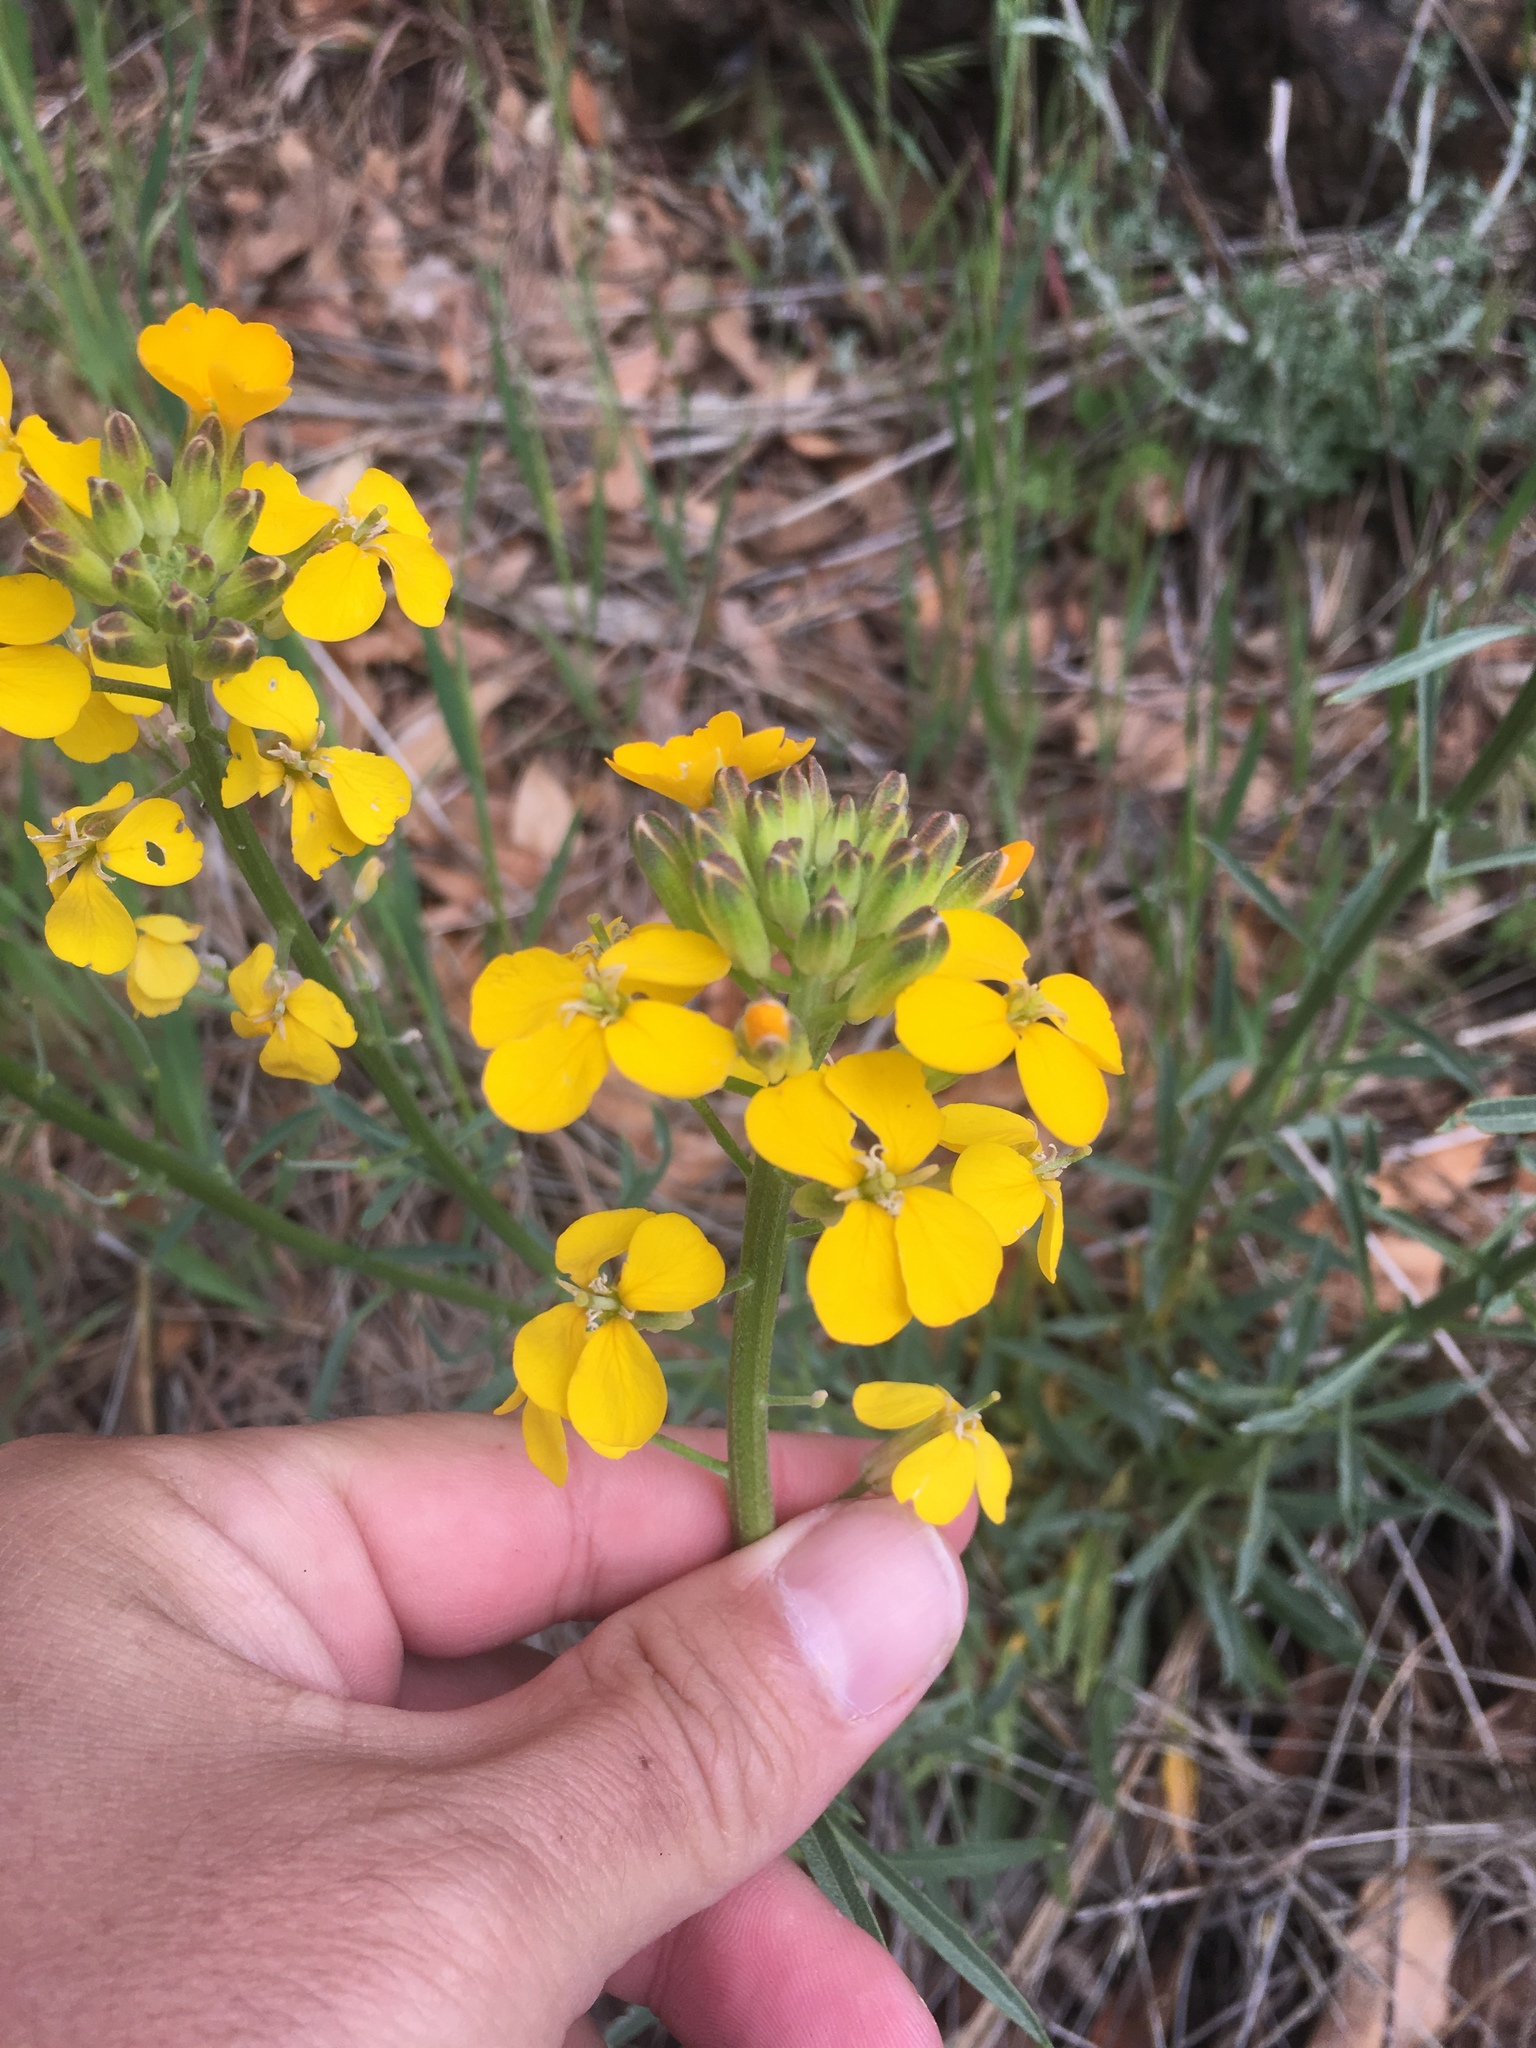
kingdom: Plantae
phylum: Tracheophyta
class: Magnoliopsida
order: Brassicales
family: Brassicaceae
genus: Erysimum
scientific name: Erysimum capitatum
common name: Western wallflower
